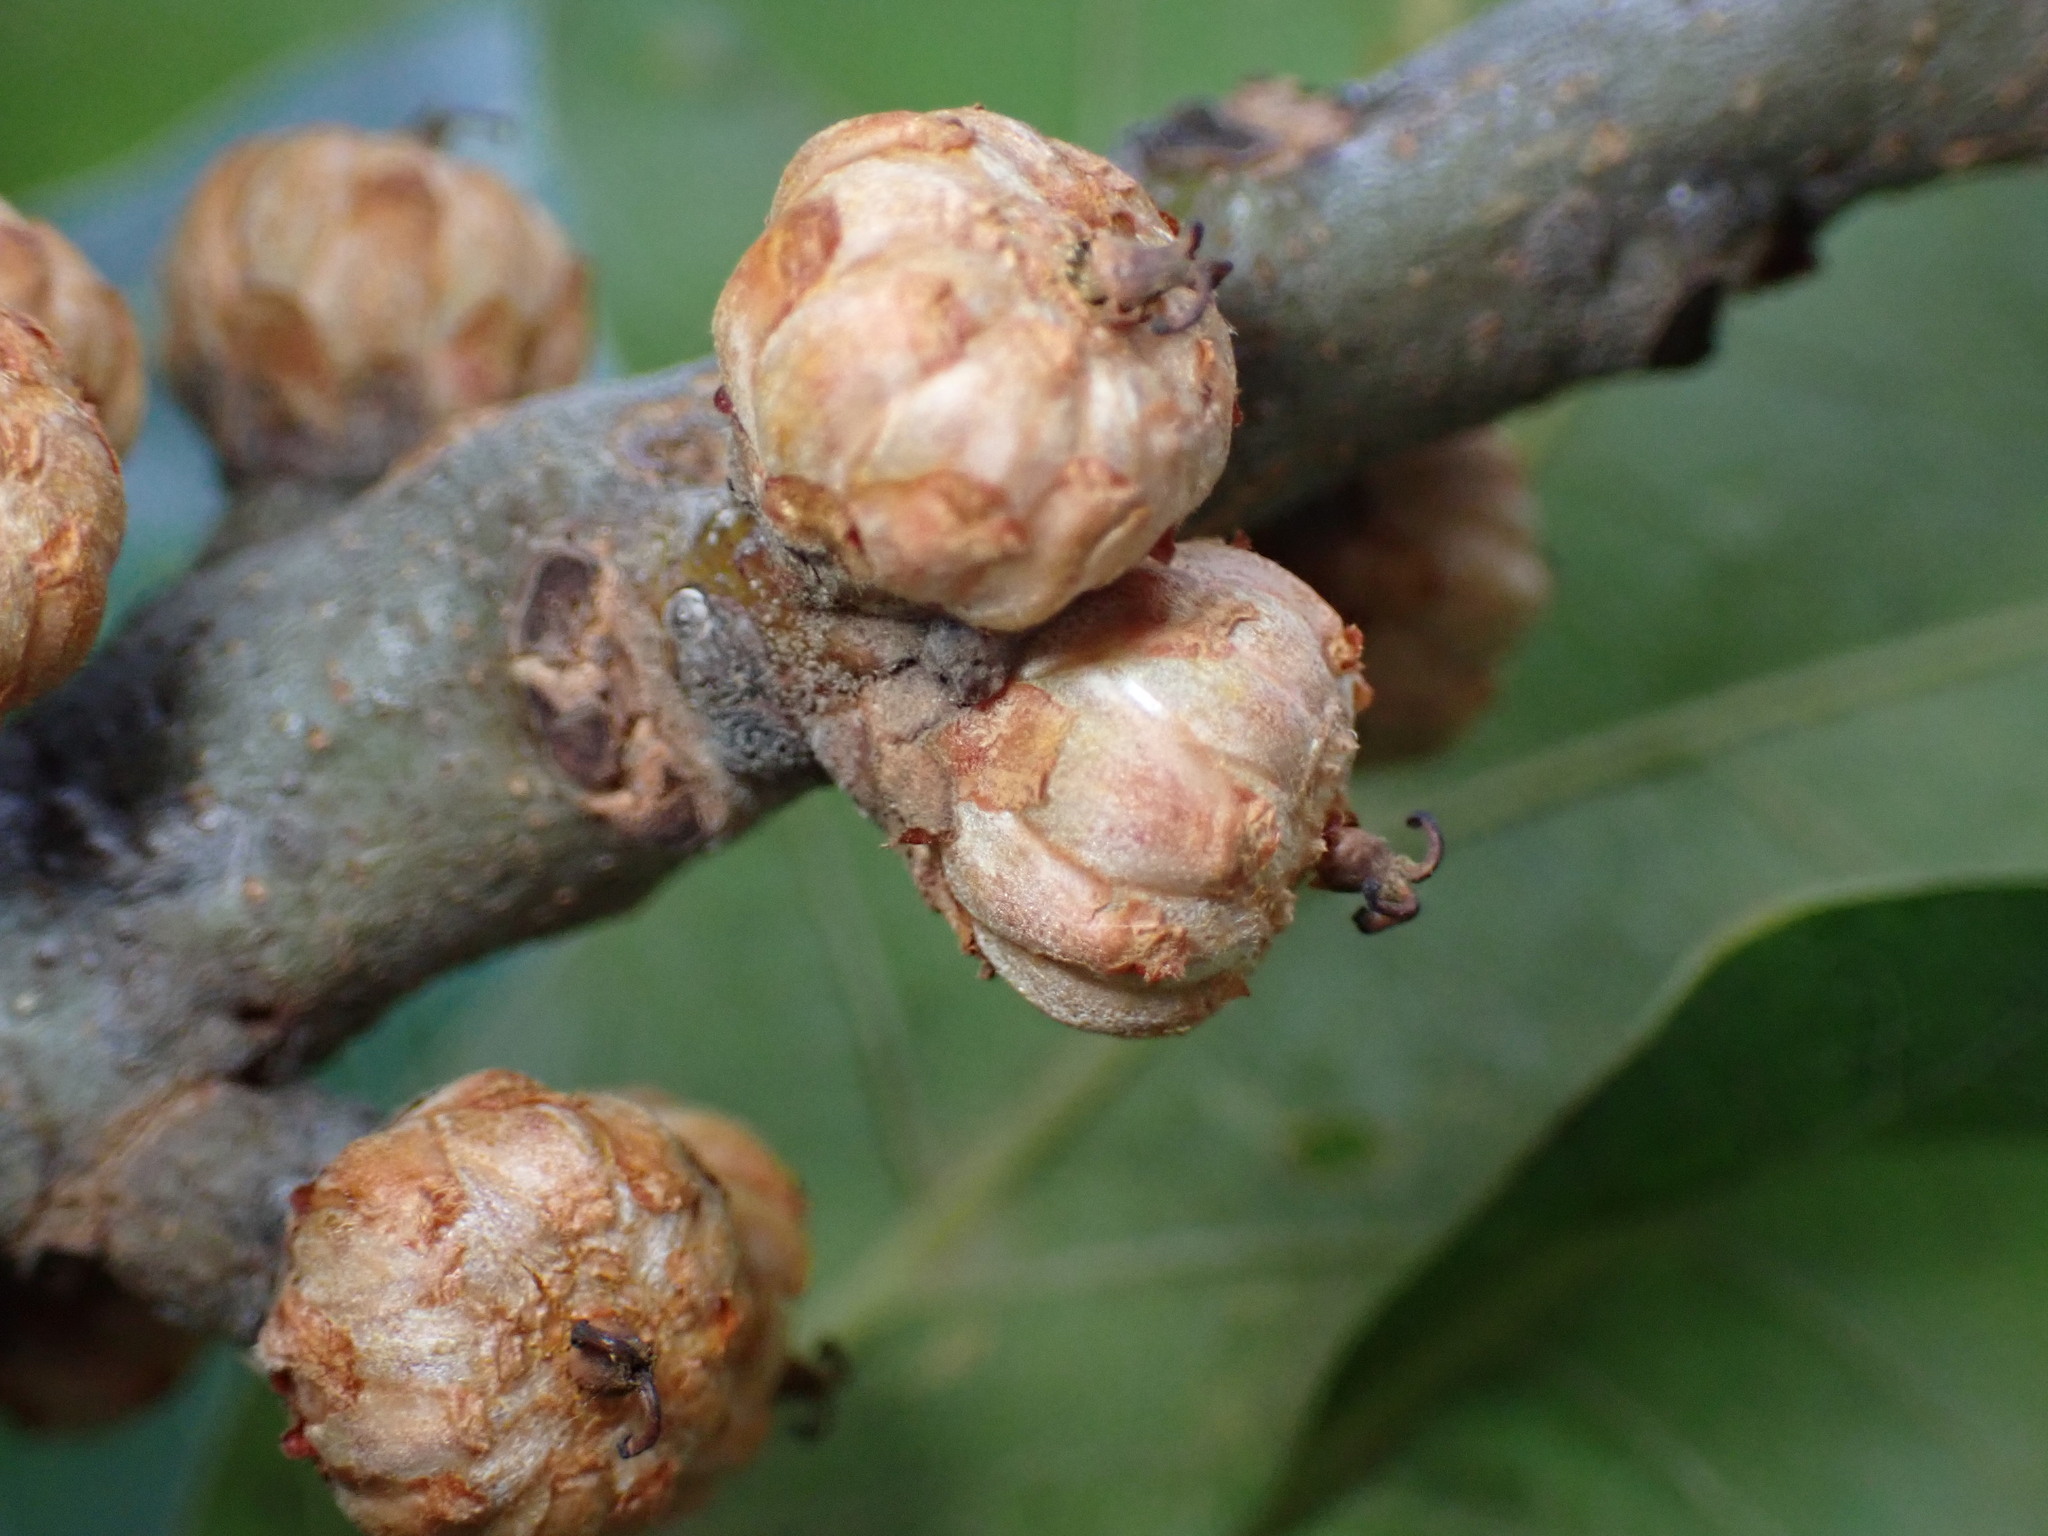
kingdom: Plantae
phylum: Tracheophyta
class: Magnoliopsida
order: Fagales
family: Fagaceae
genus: Quercus
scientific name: Quercus marilandica
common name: Blackjack oak
